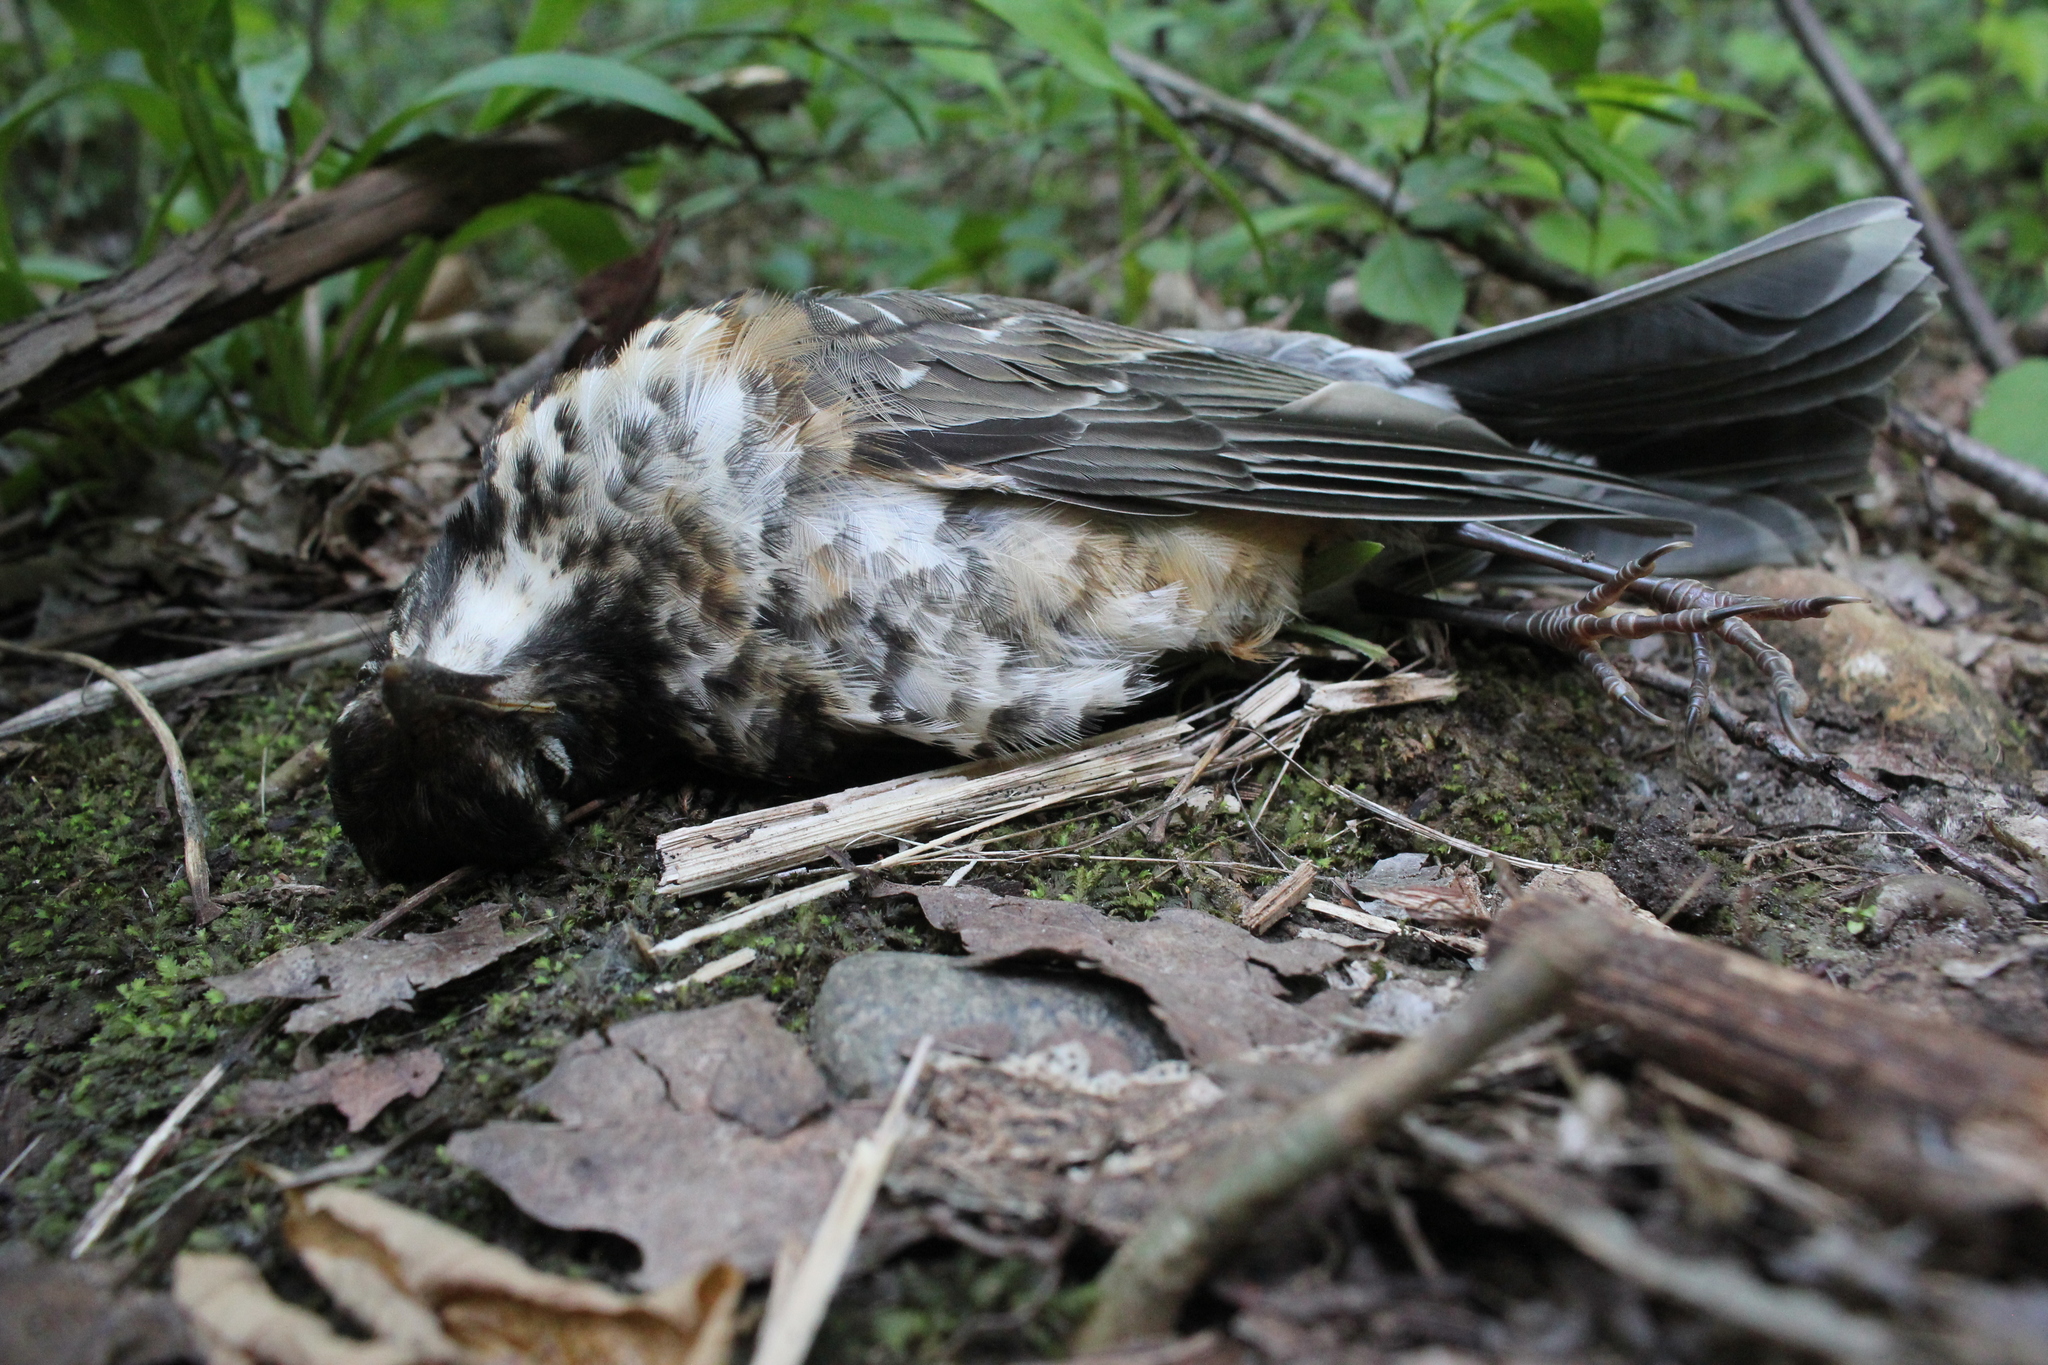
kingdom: Animalia
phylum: Chordata
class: Aves
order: Passeriformes
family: Turdidae
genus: Turdus
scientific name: Turdus migratorius
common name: American robin
